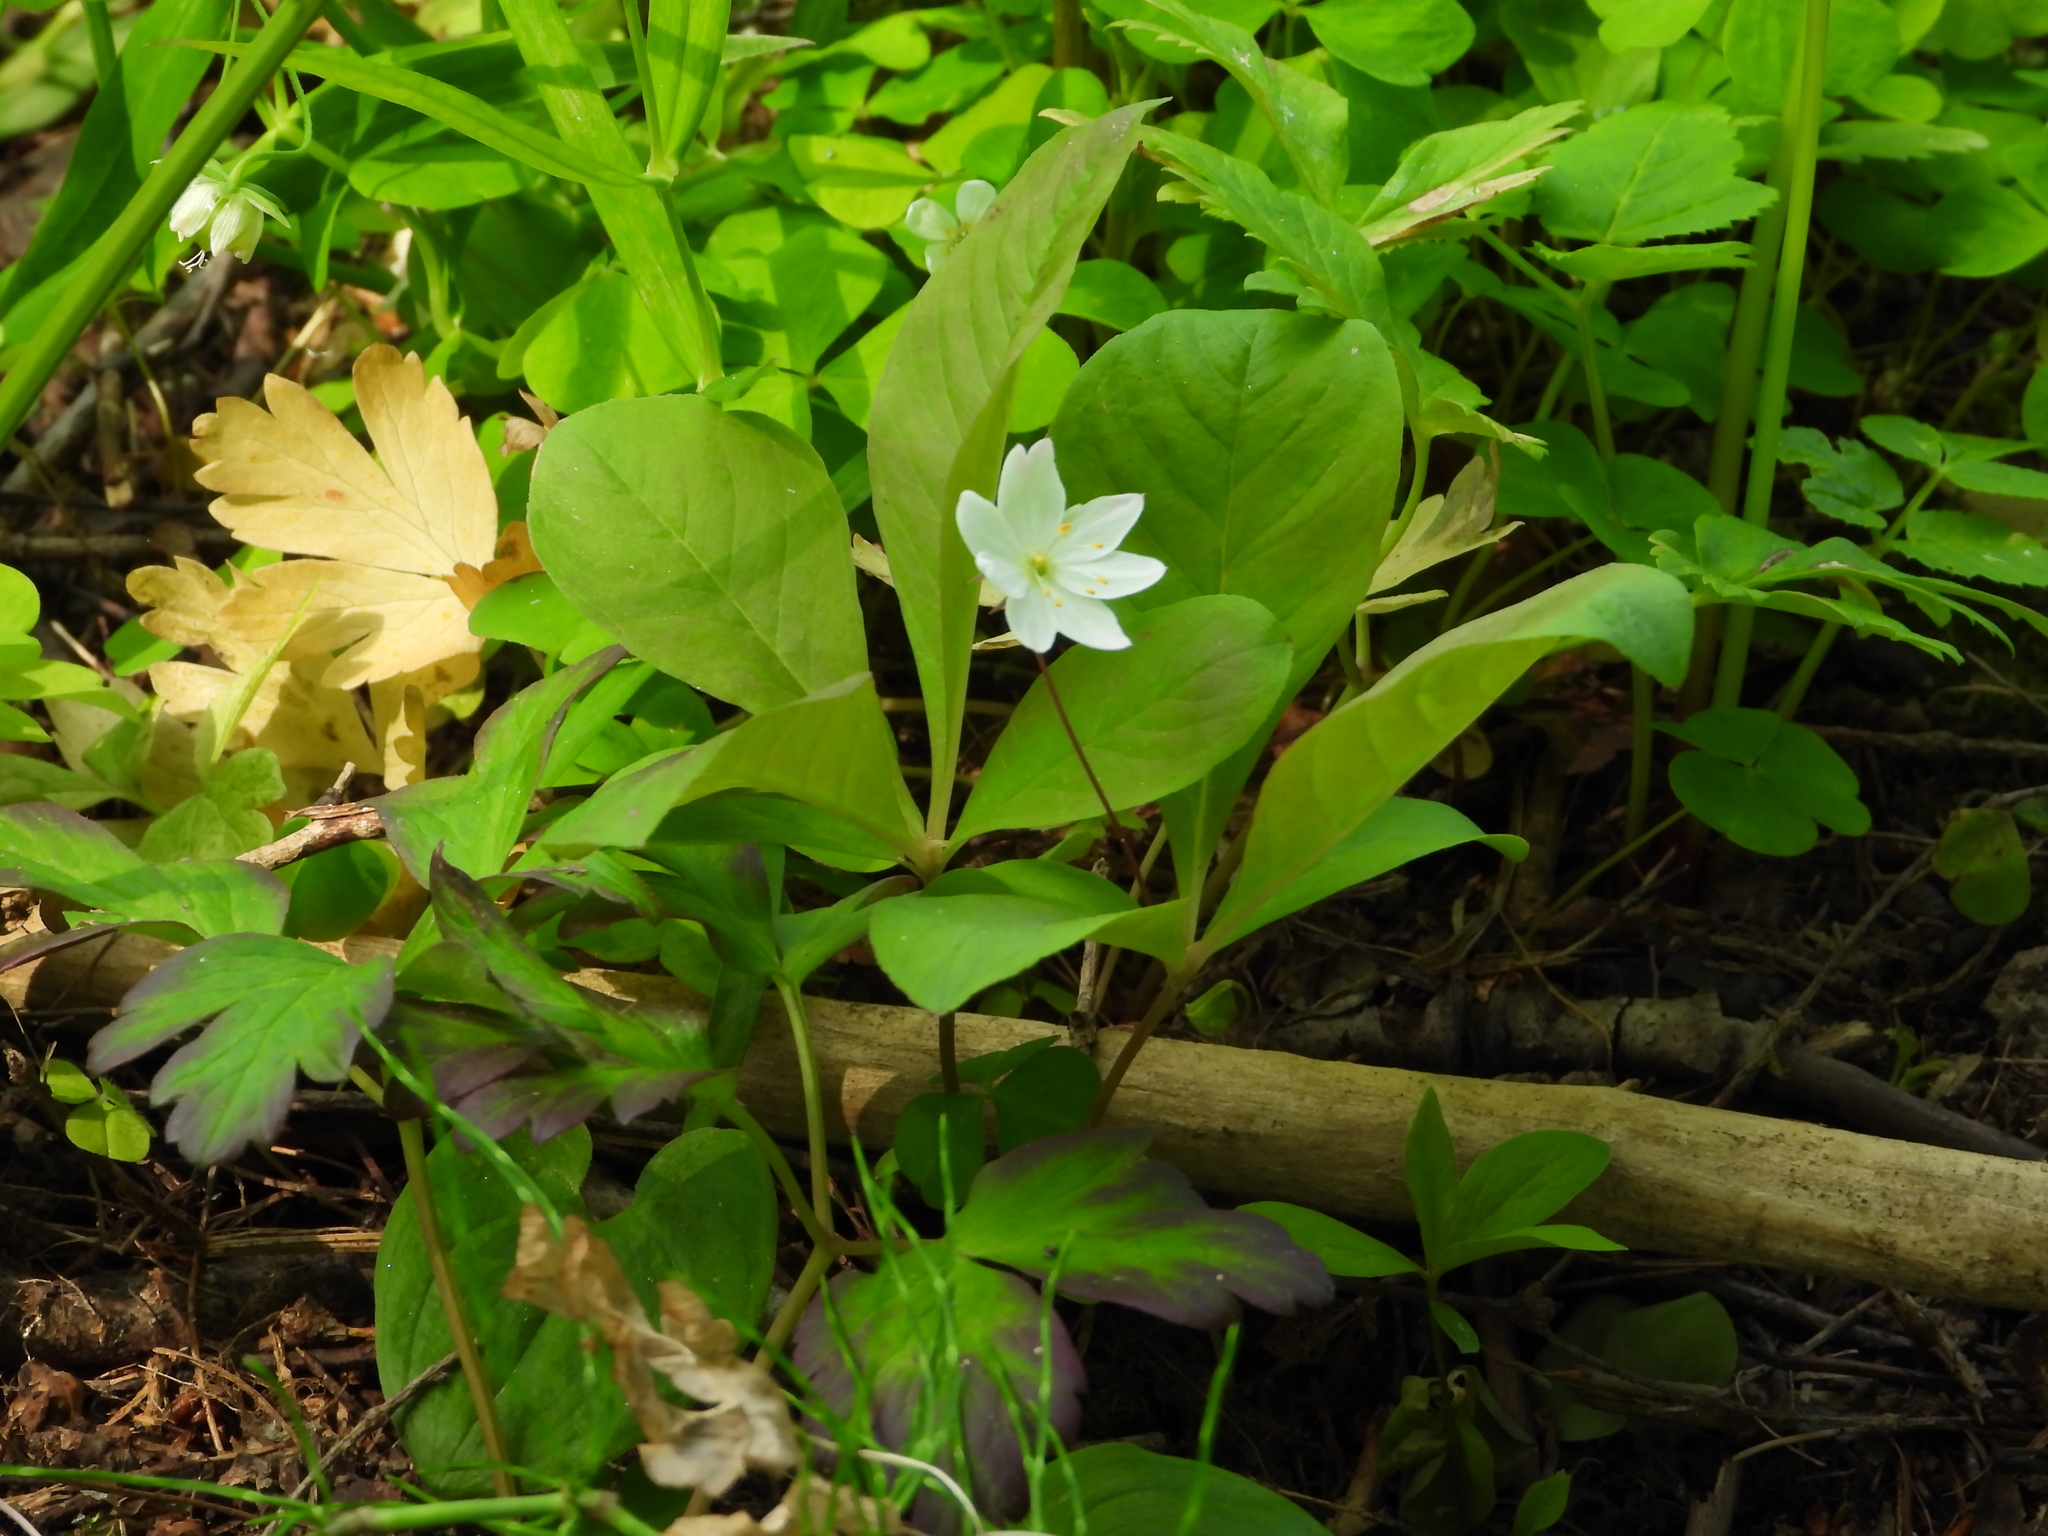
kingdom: Plantae
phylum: Tracheophyta
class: Magnoliopsida
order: Ericales
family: Primulaceae
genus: Lysimachia
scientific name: Lysimachia europaea
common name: Arctic starflower
